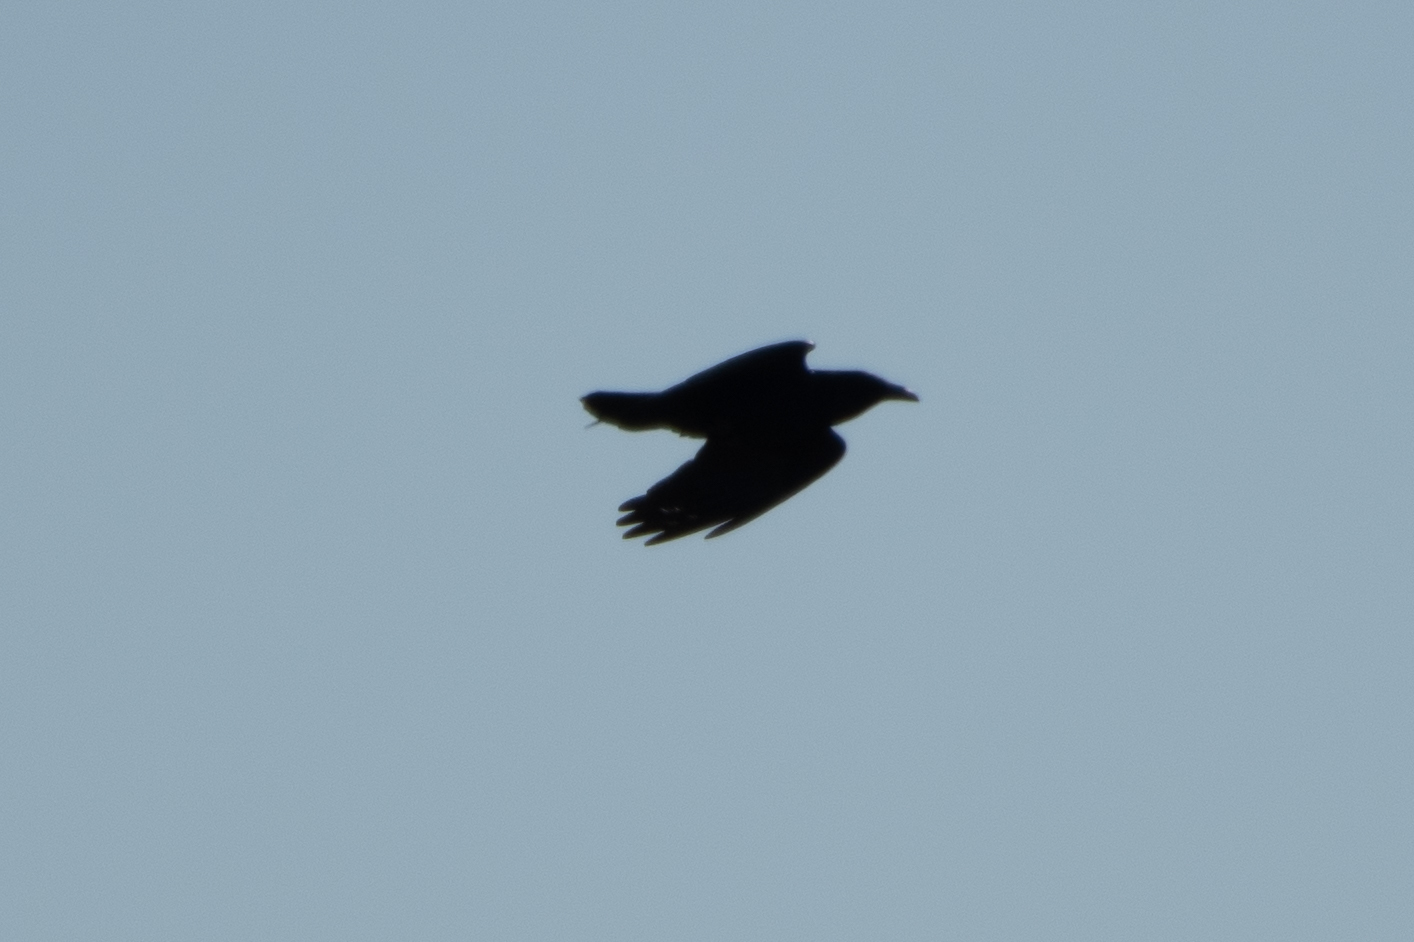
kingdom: Animalia
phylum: Chordata
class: Aves
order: Passeriformes
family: Corvidae
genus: Corvus
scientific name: Corvus corax
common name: Common raven
